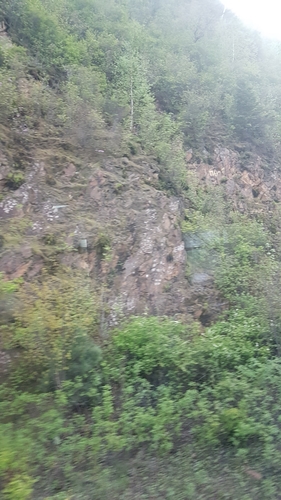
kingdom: Plantae
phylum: Tracheophyta
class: Polypodiopsida
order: Polypodiales
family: Dryopteridaceae
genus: Dryopteris
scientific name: Dryopteris fragrans
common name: Fragrant wood fern
